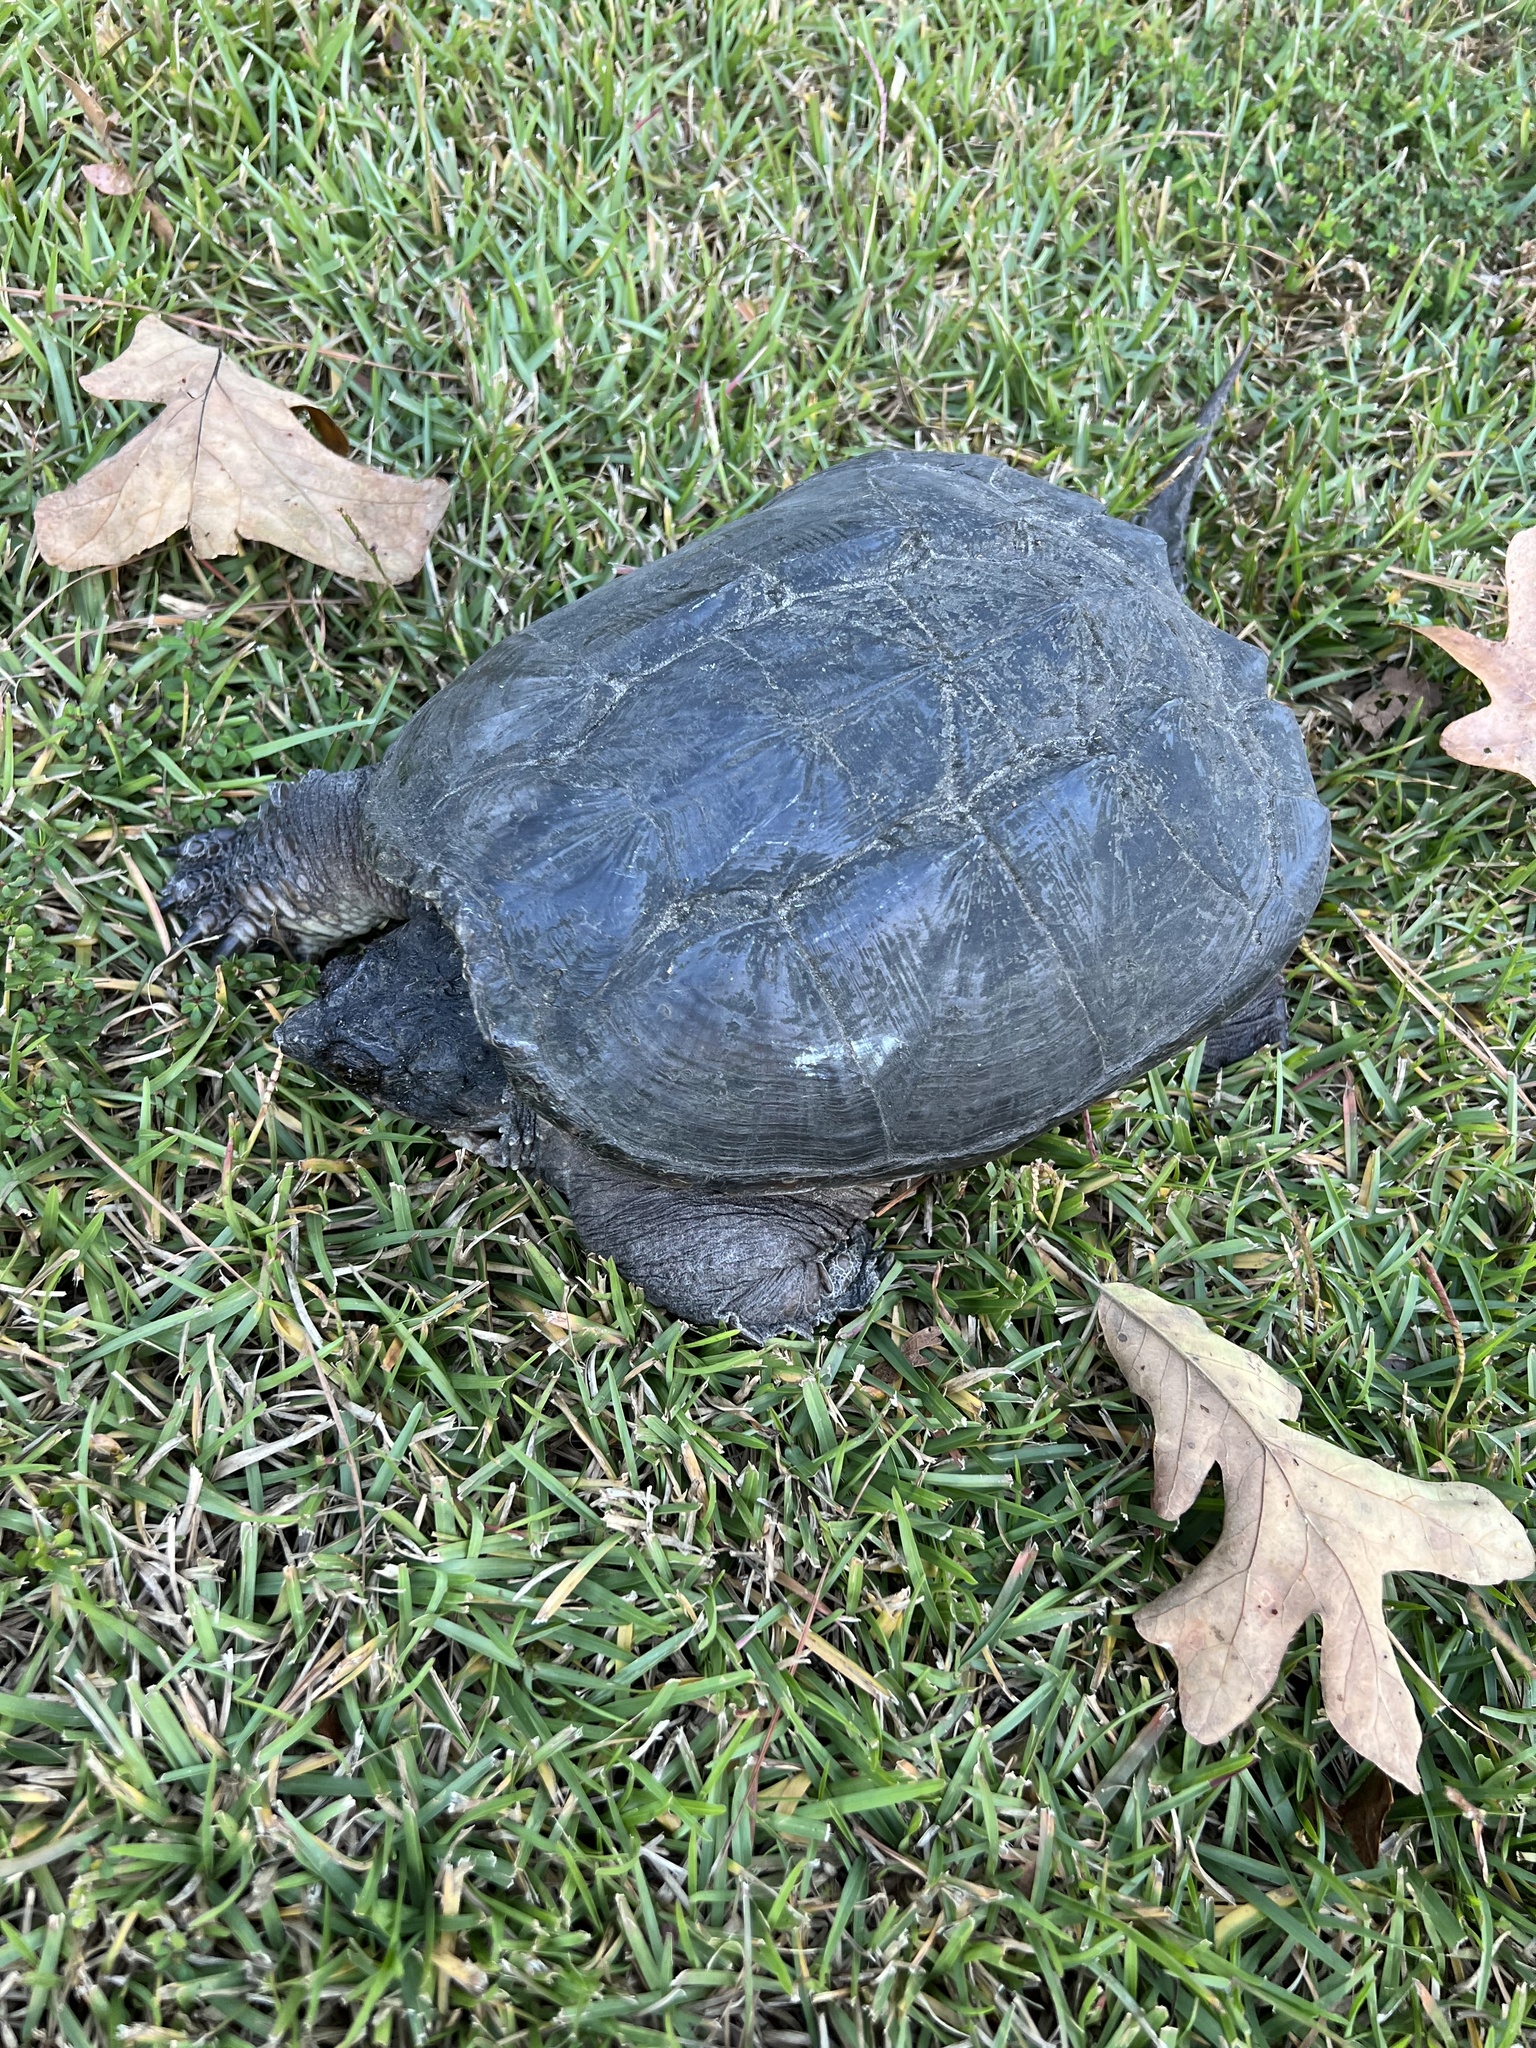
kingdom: Animalia
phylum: Chordata
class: Testudines
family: Chelydridae
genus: Chelydra
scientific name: Chelydra serpentina
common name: Common snapping turtle
